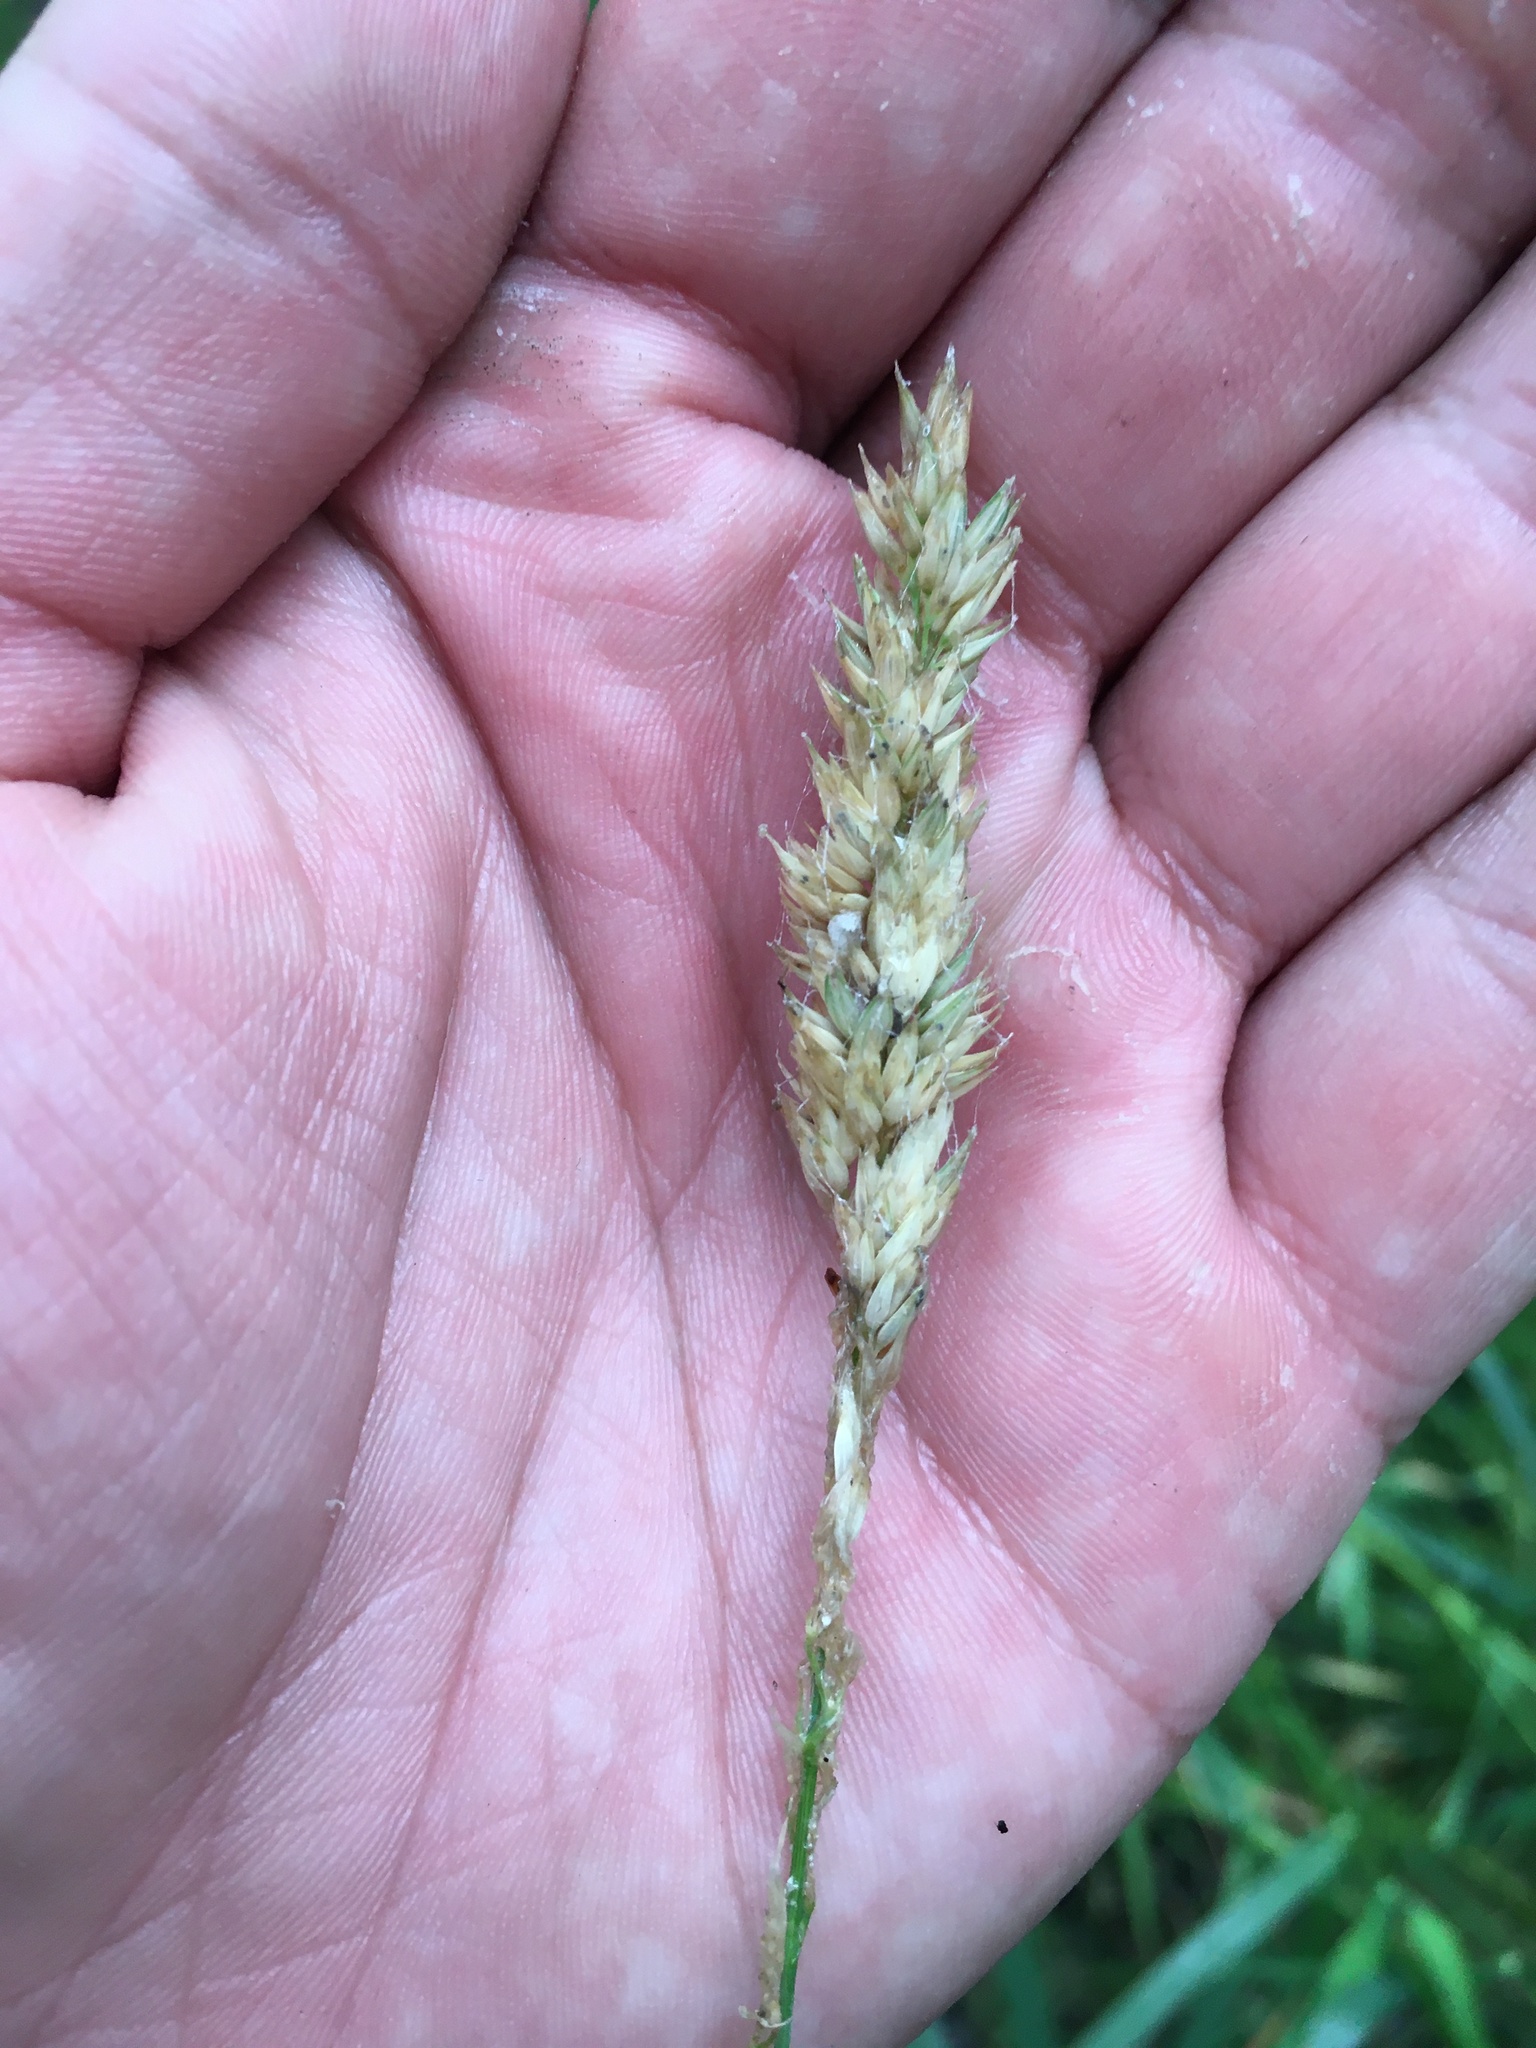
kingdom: Plantae
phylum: Tracheophyta
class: Liliopsida
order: Poales
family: Poaceae
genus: Phalaris
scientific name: Phalaris arundinacea
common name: Reed canary-grass
